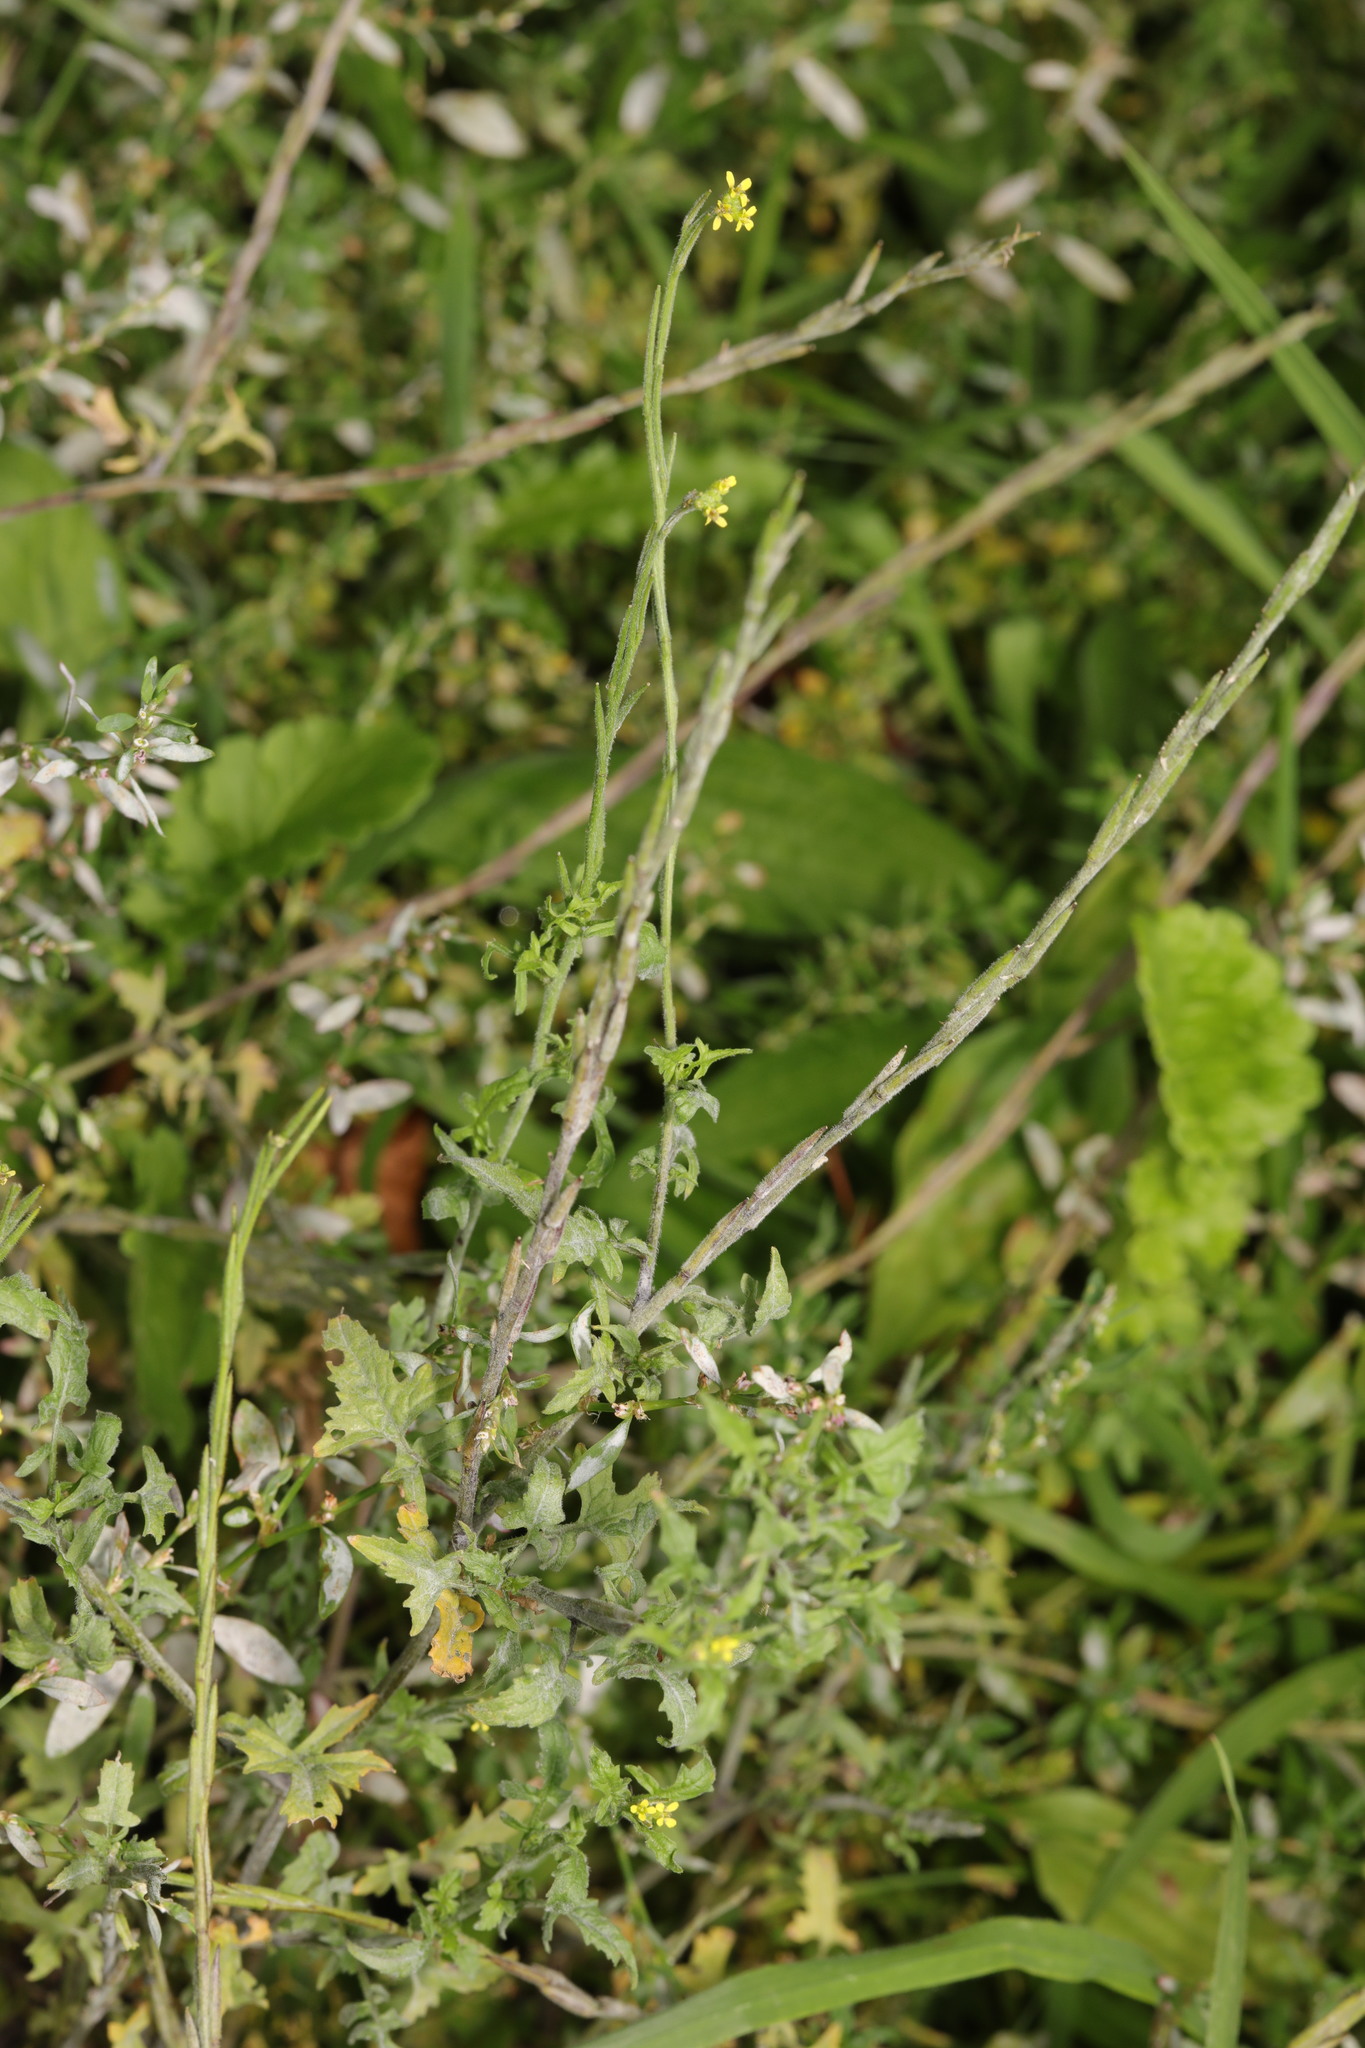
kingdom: Plantae
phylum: Tracheophyta
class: Magnoliopsida
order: Brassicales
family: Brassicaceae
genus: Sisymbrium
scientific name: Sisymbrium officinale
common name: Hedge mustard
